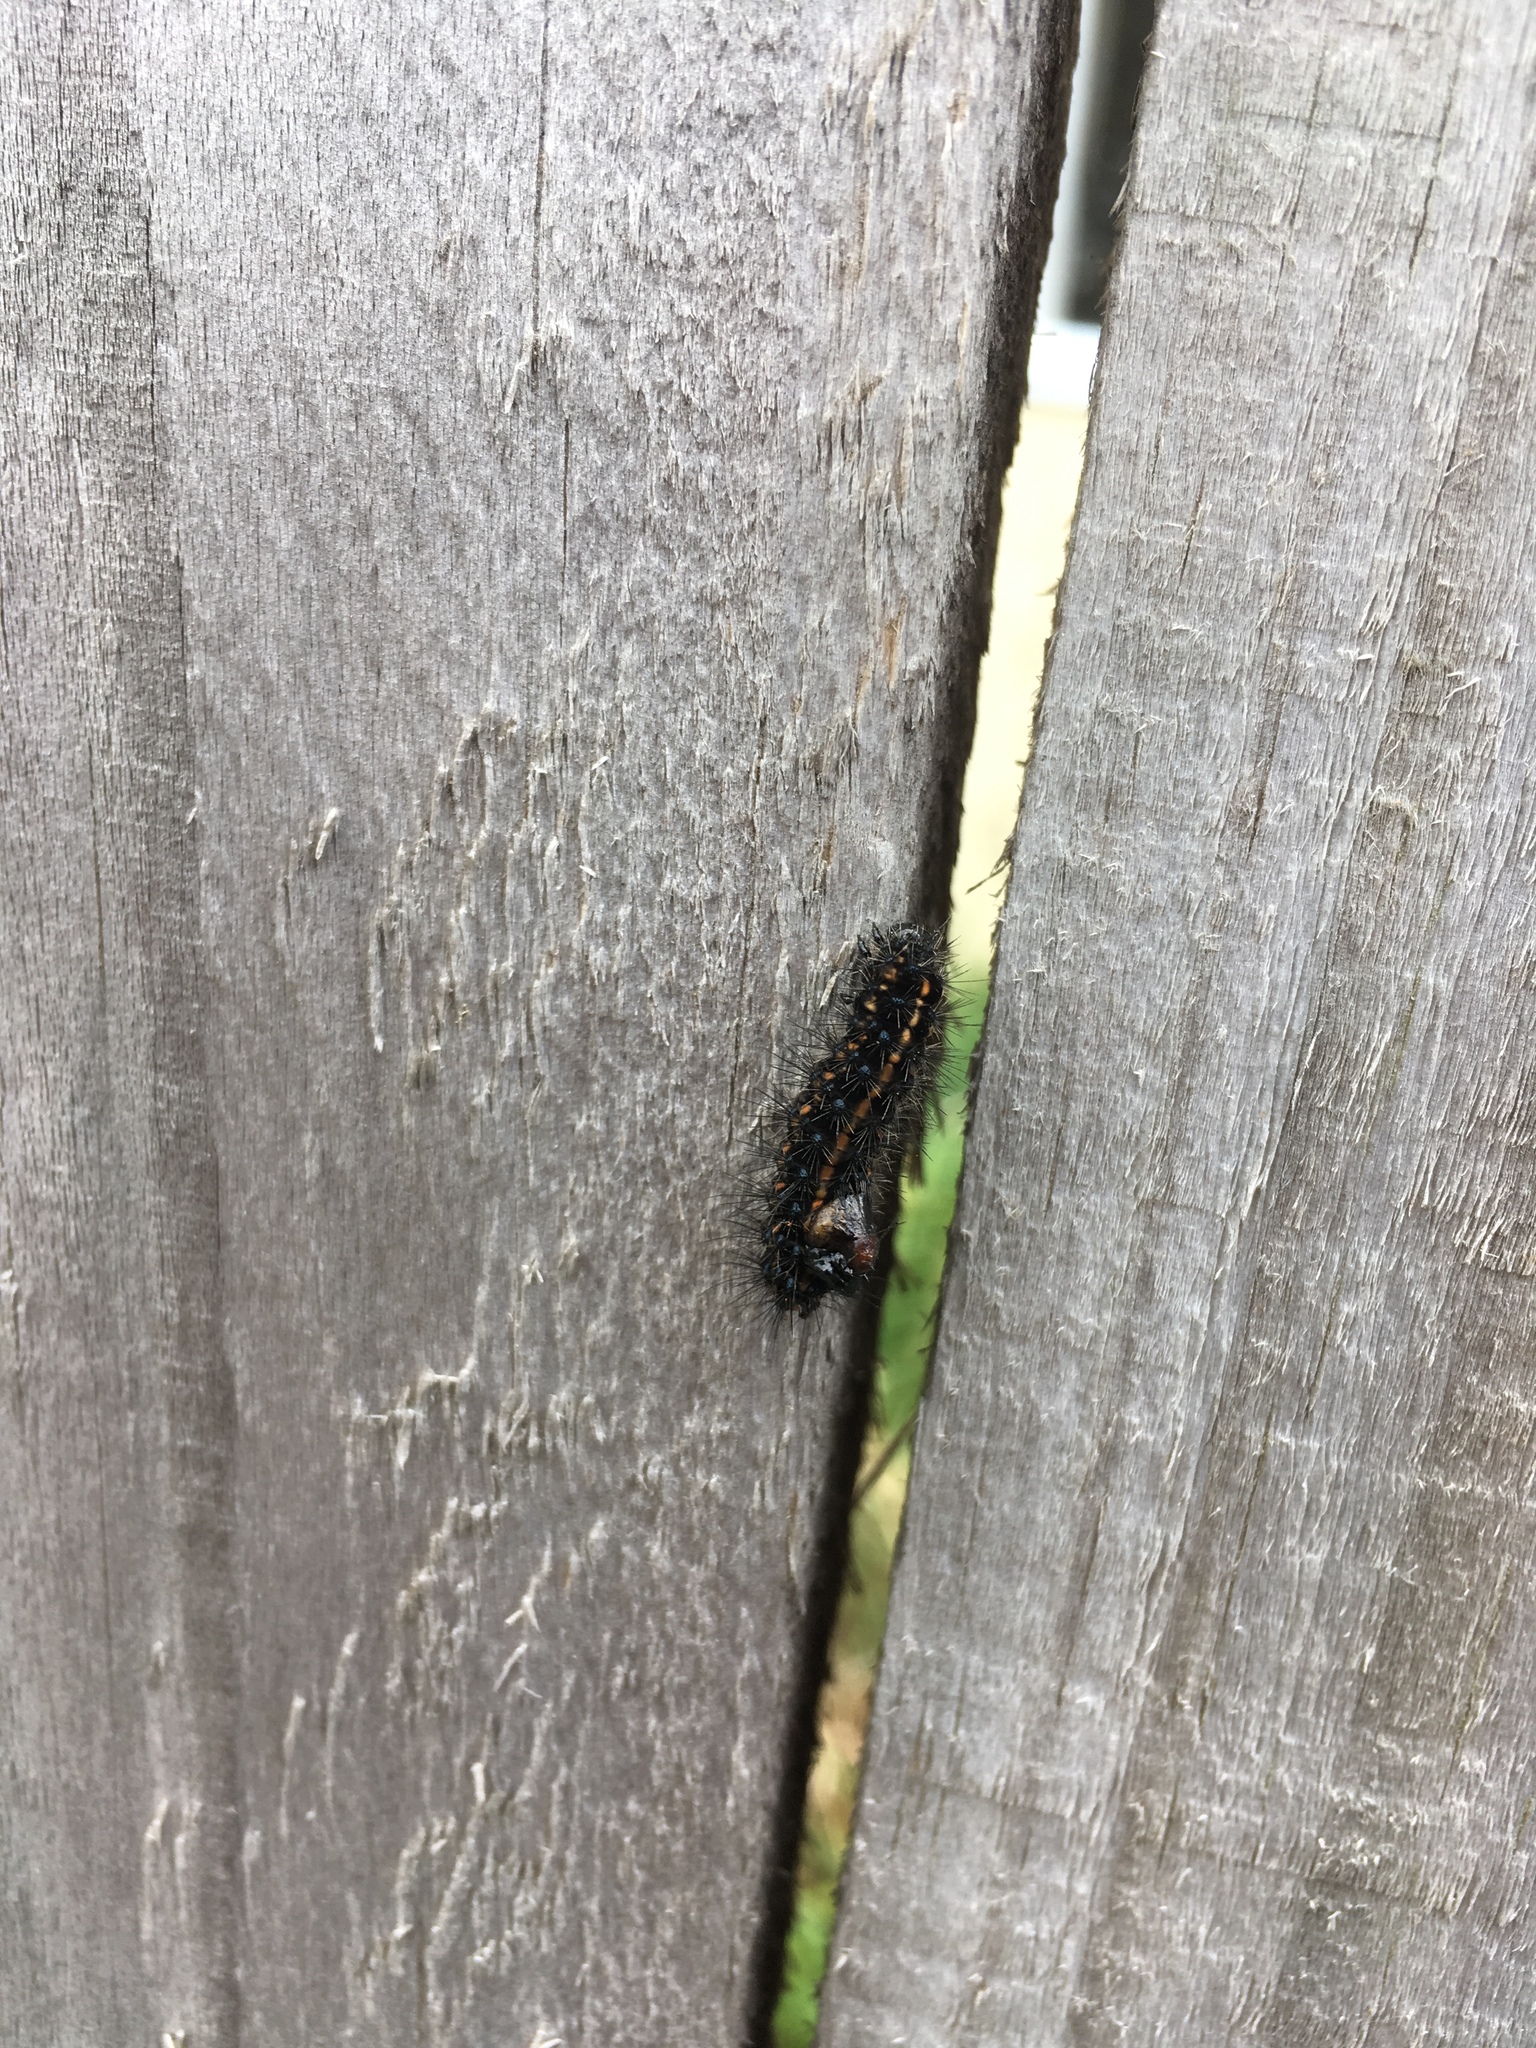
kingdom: Animalia
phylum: Arthropoda
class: Insecta
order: Lepidoptera
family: Erebidae
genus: Nyctemera
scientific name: Nyctemera annulatum
